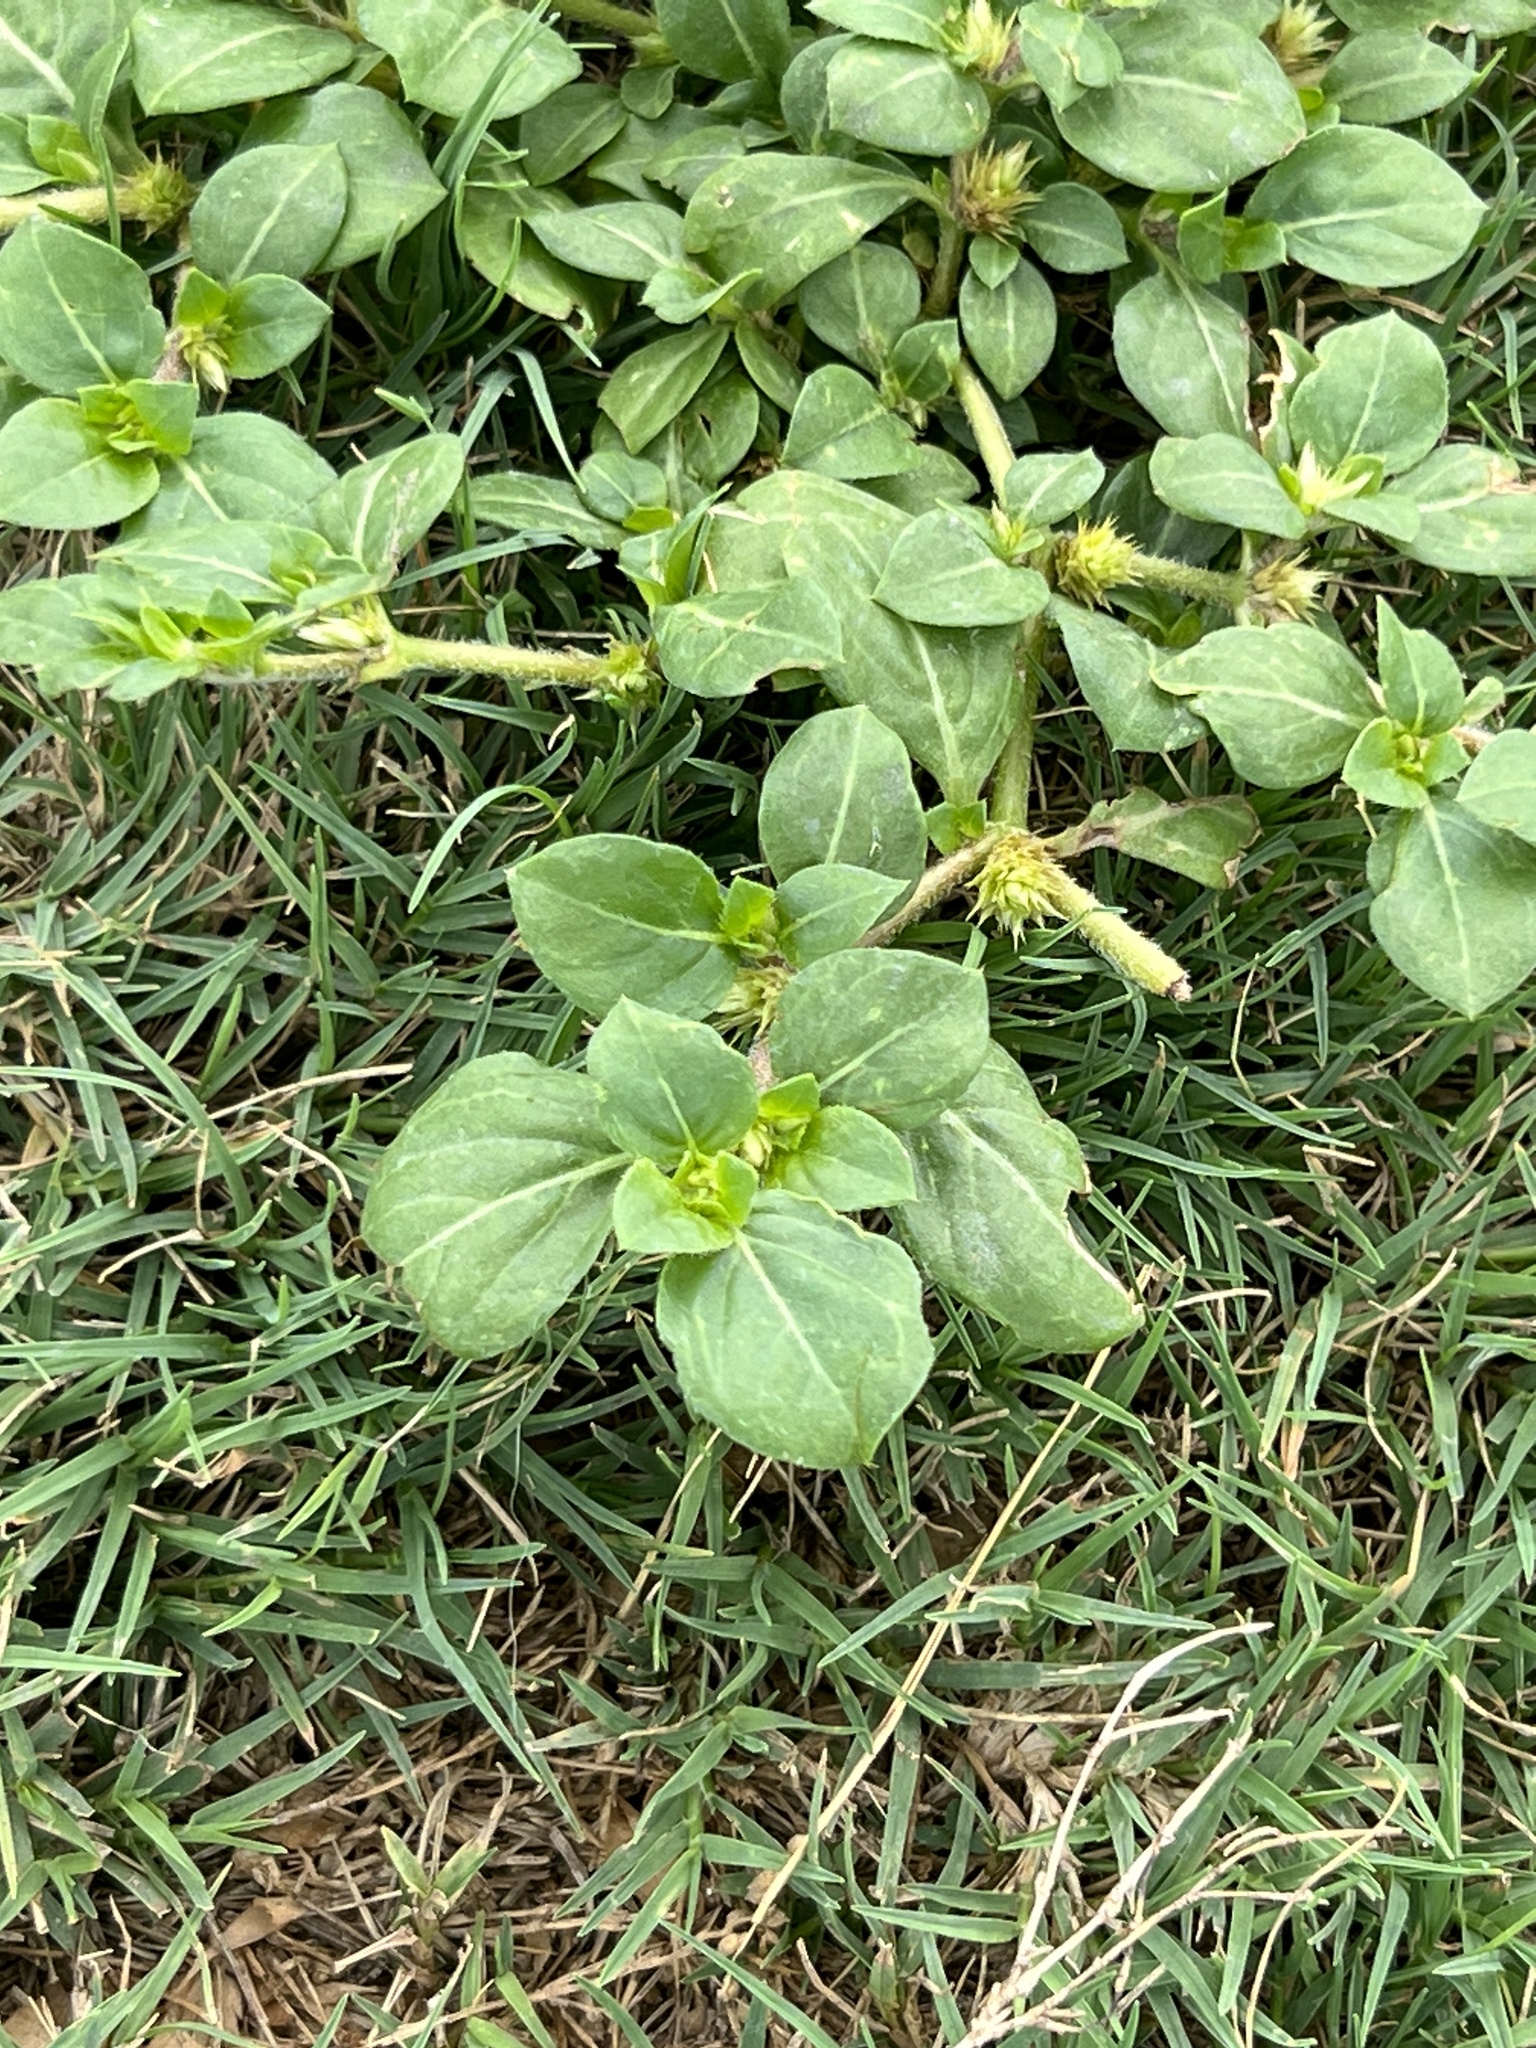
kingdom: Plantae
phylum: Tracheophyta
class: Magnoliopsida
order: Caryophyllales
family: Amaranthaceae
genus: Alternanthera
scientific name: Alternanthera pungens
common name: Khakiweed
